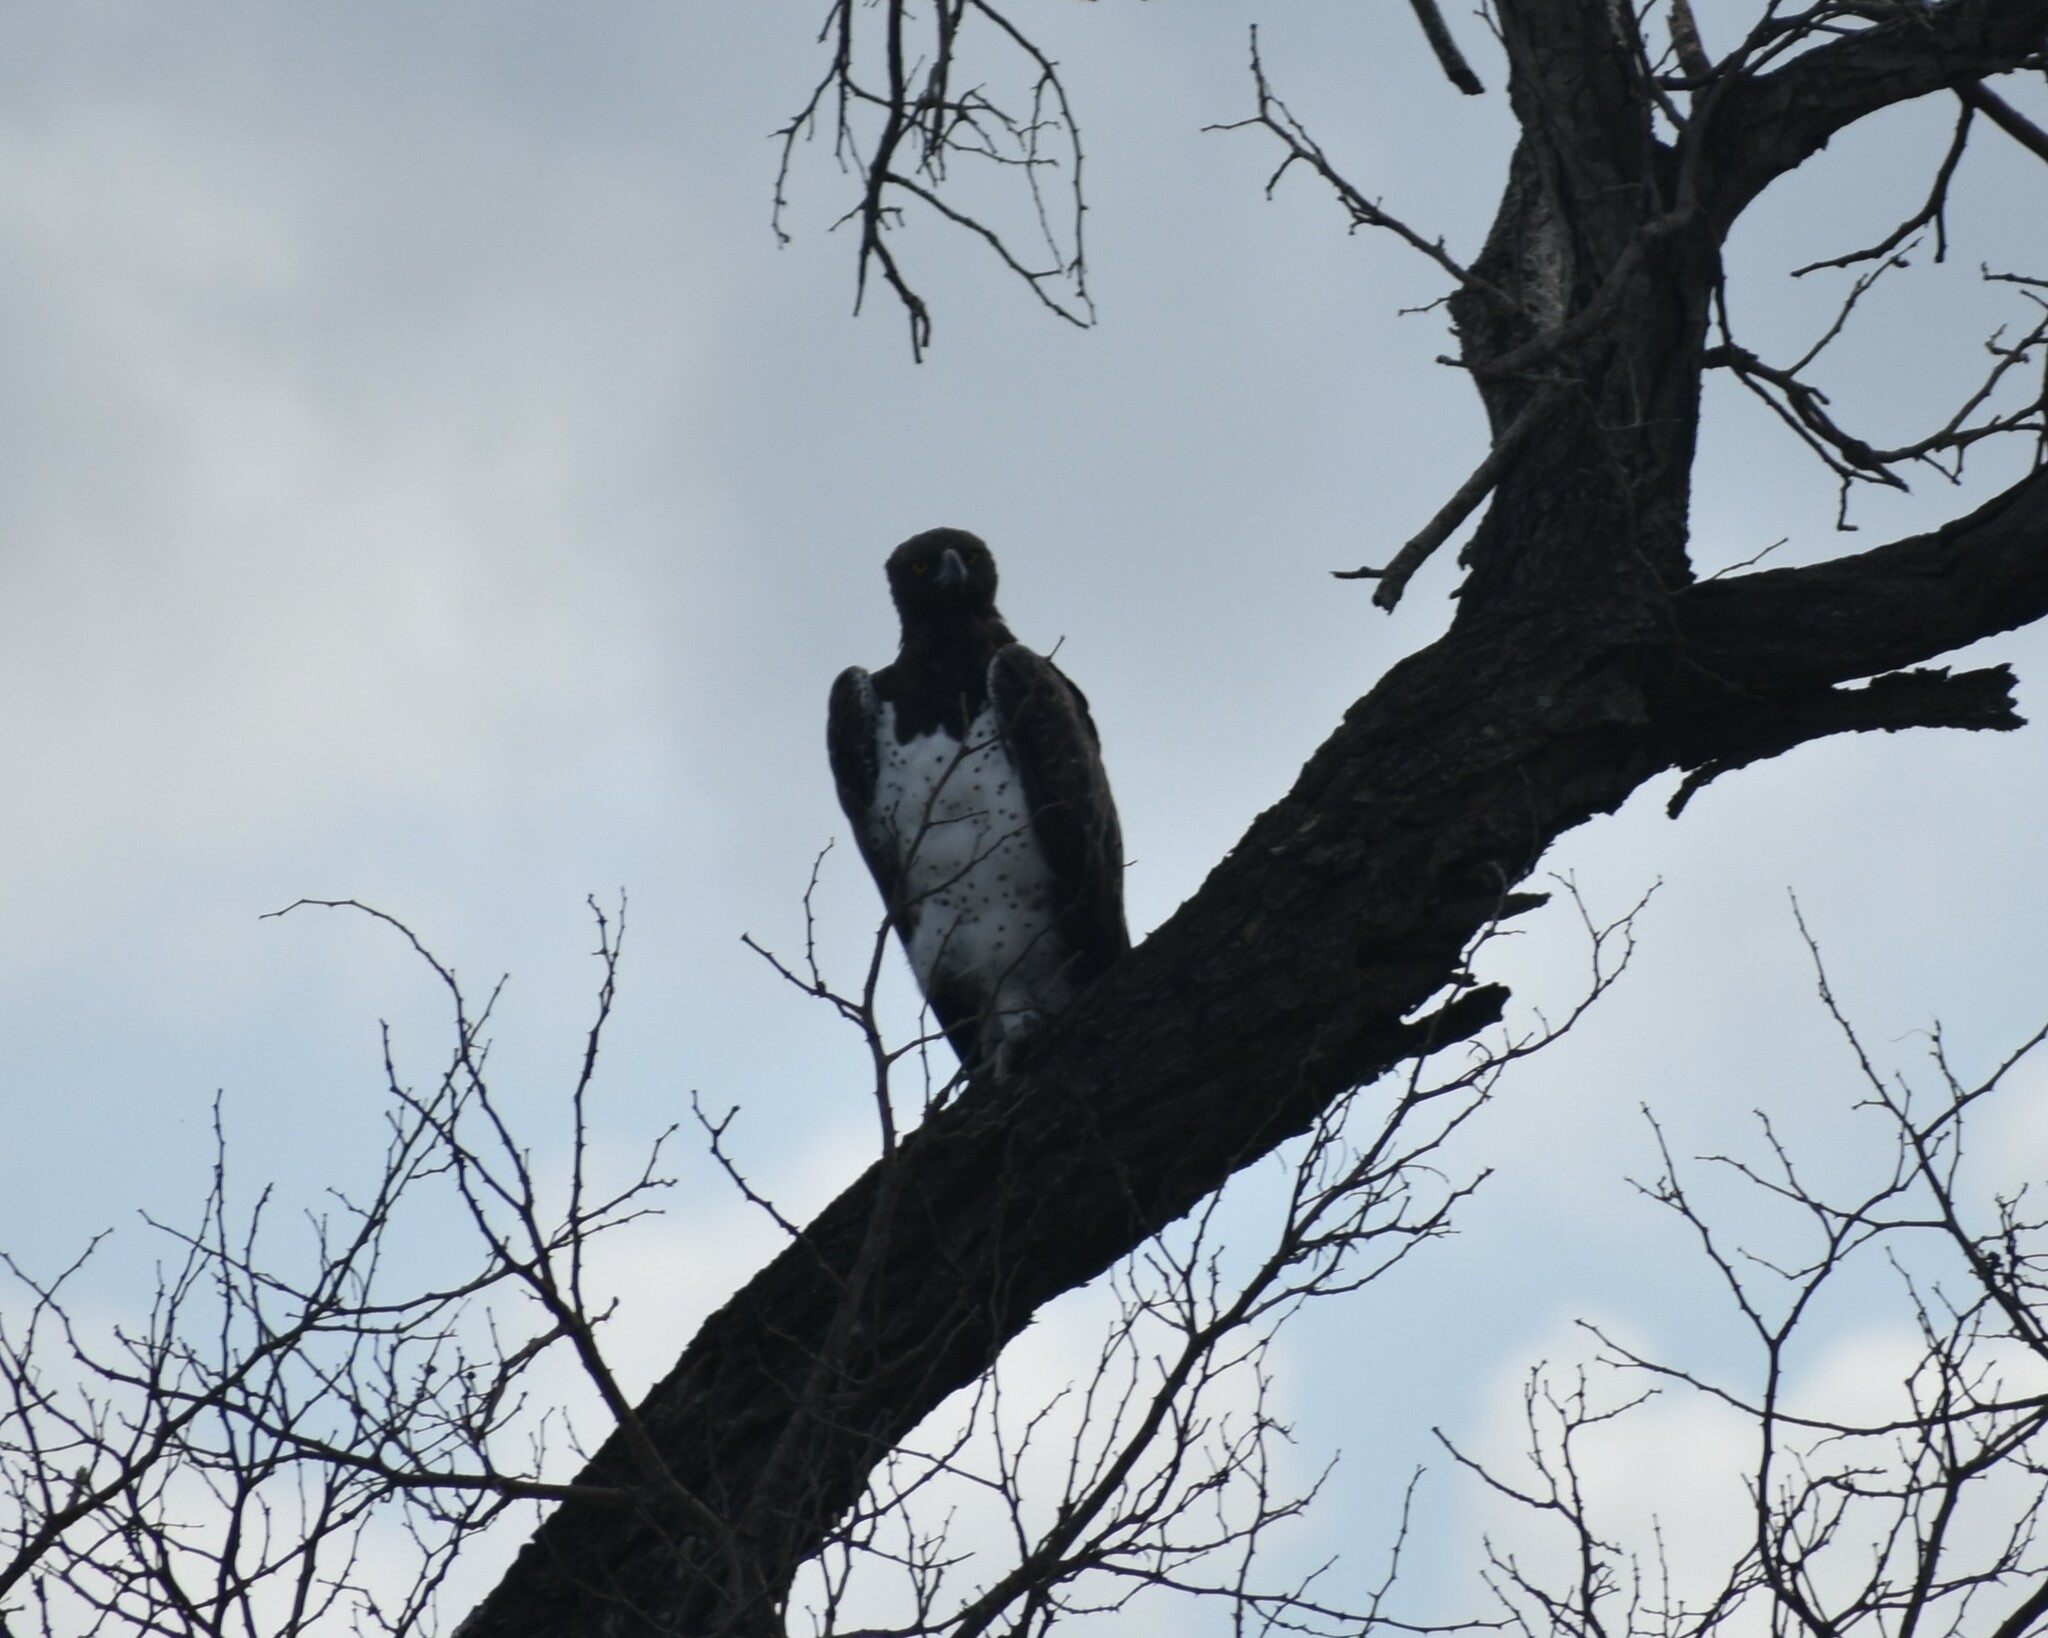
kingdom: Animalia
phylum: Chordata
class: Aves
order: Accipitriformes
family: Accipitridae
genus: Polemaetus
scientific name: Polemaetus bellicosus
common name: Martial eagle
